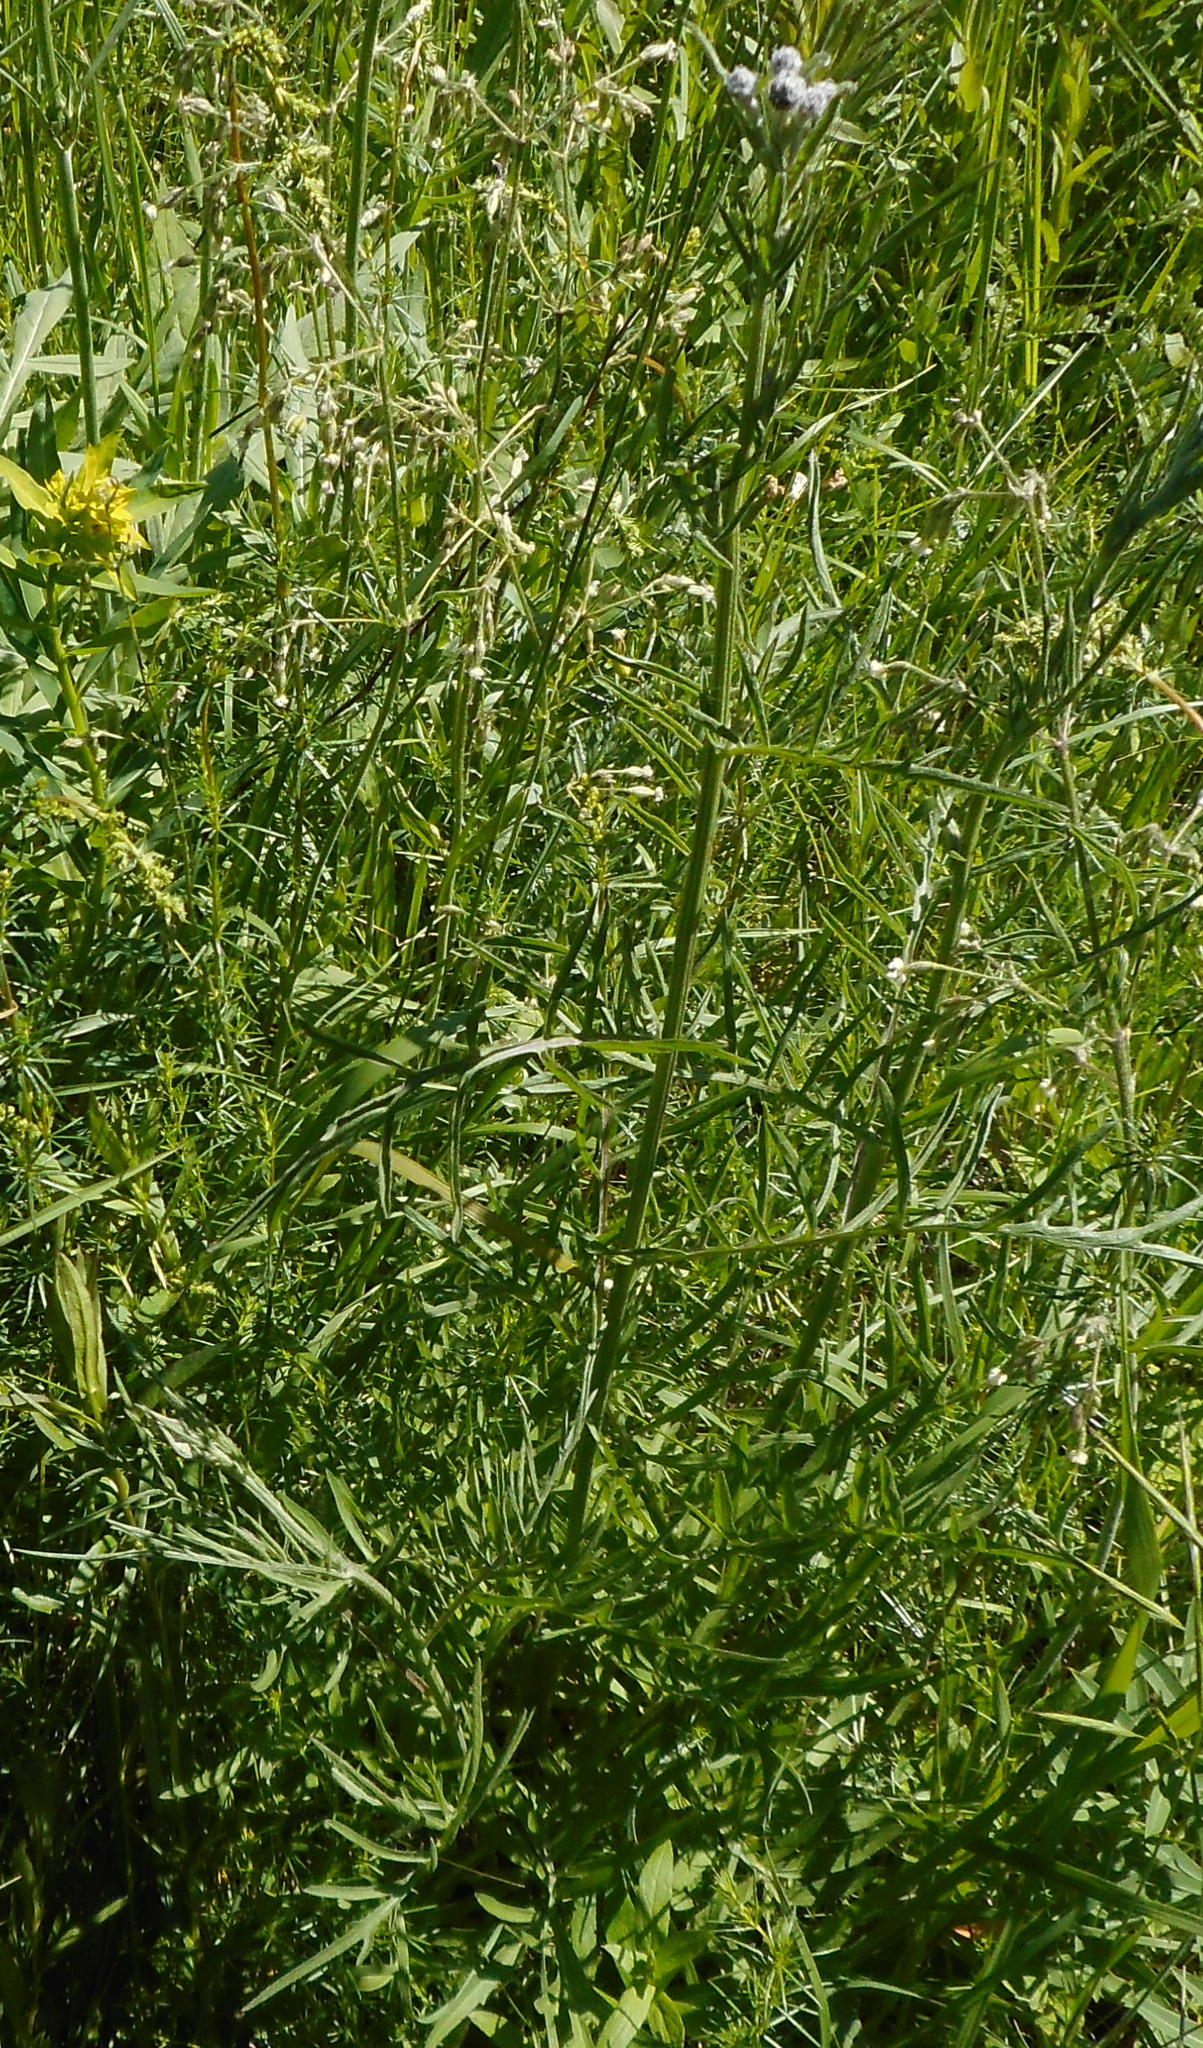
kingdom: Plantae
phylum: Tracheophyta
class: Magnoliopsida
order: Asterales
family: Asteraceae
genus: Centaurea
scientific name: Centaurea scabiosa
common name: Greater knapweed
